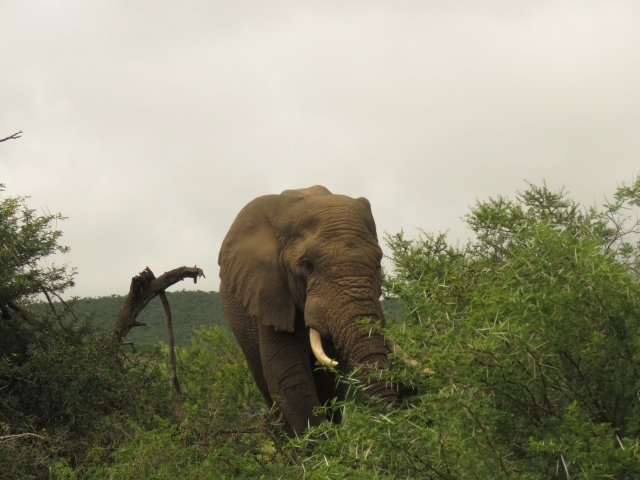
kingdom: Animalia
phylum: Chordata
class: Mammalia
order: Proboscidea
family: Elephantidae
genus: Loxodonta
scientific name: Loxodonta africana
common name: African elephant
